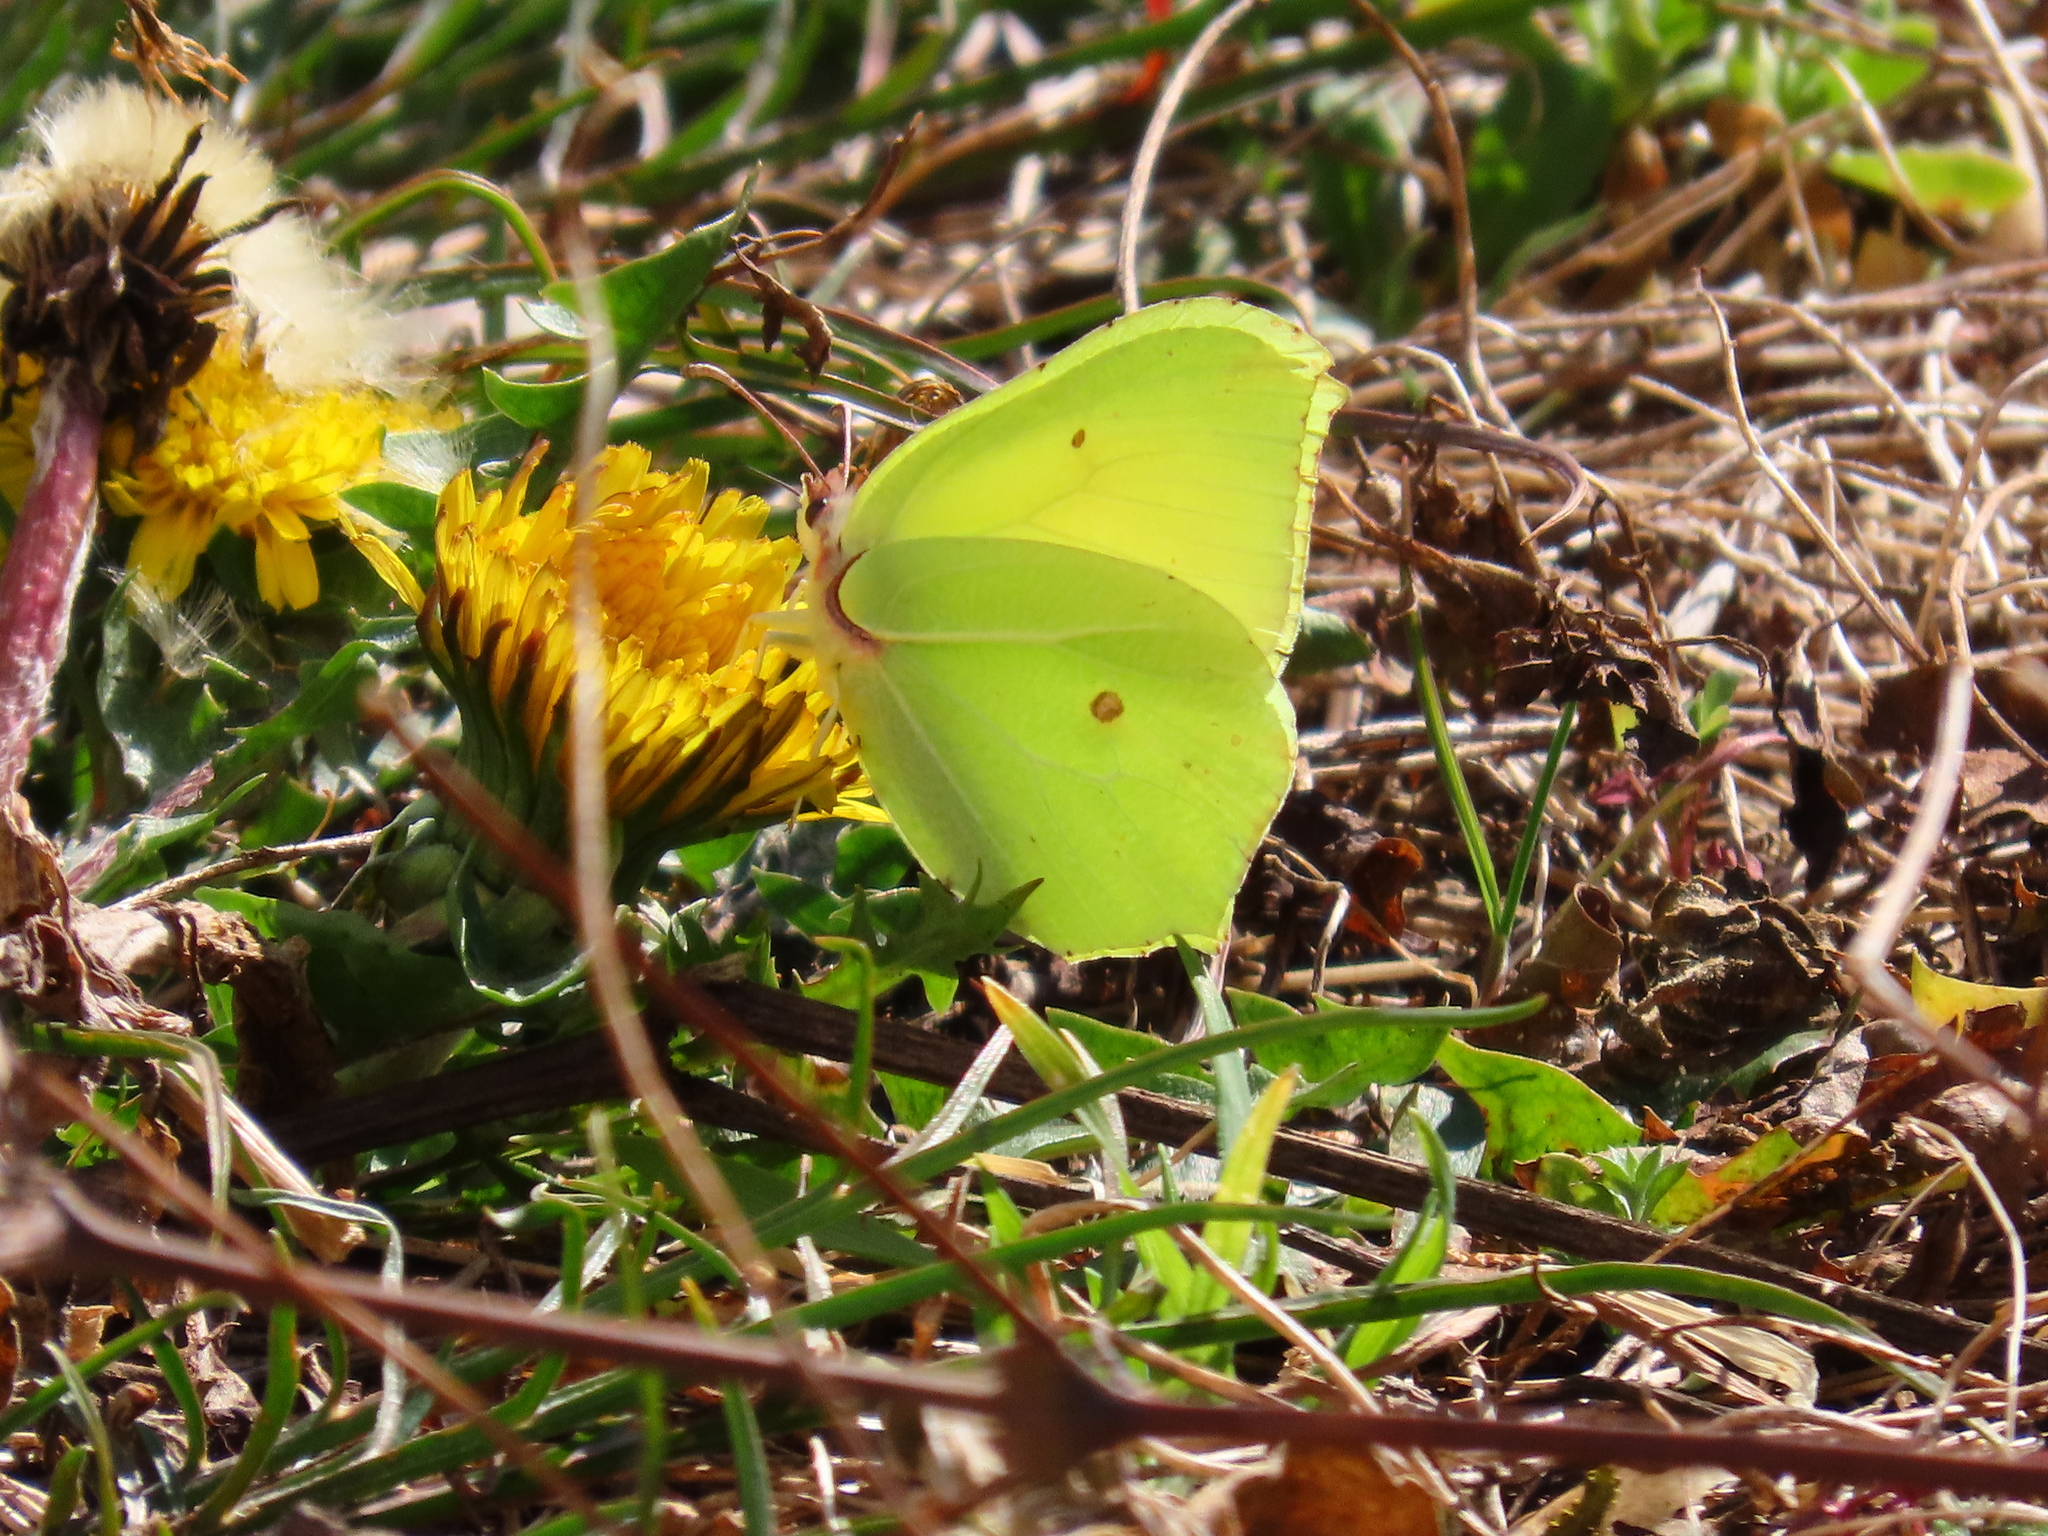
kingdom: Animalia
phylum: Arthropoda
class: Insecta
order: Lepidoptera
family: Pieridae
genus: Gonepteryx
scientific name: Gonepteryx rhamni
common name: Brimstone
